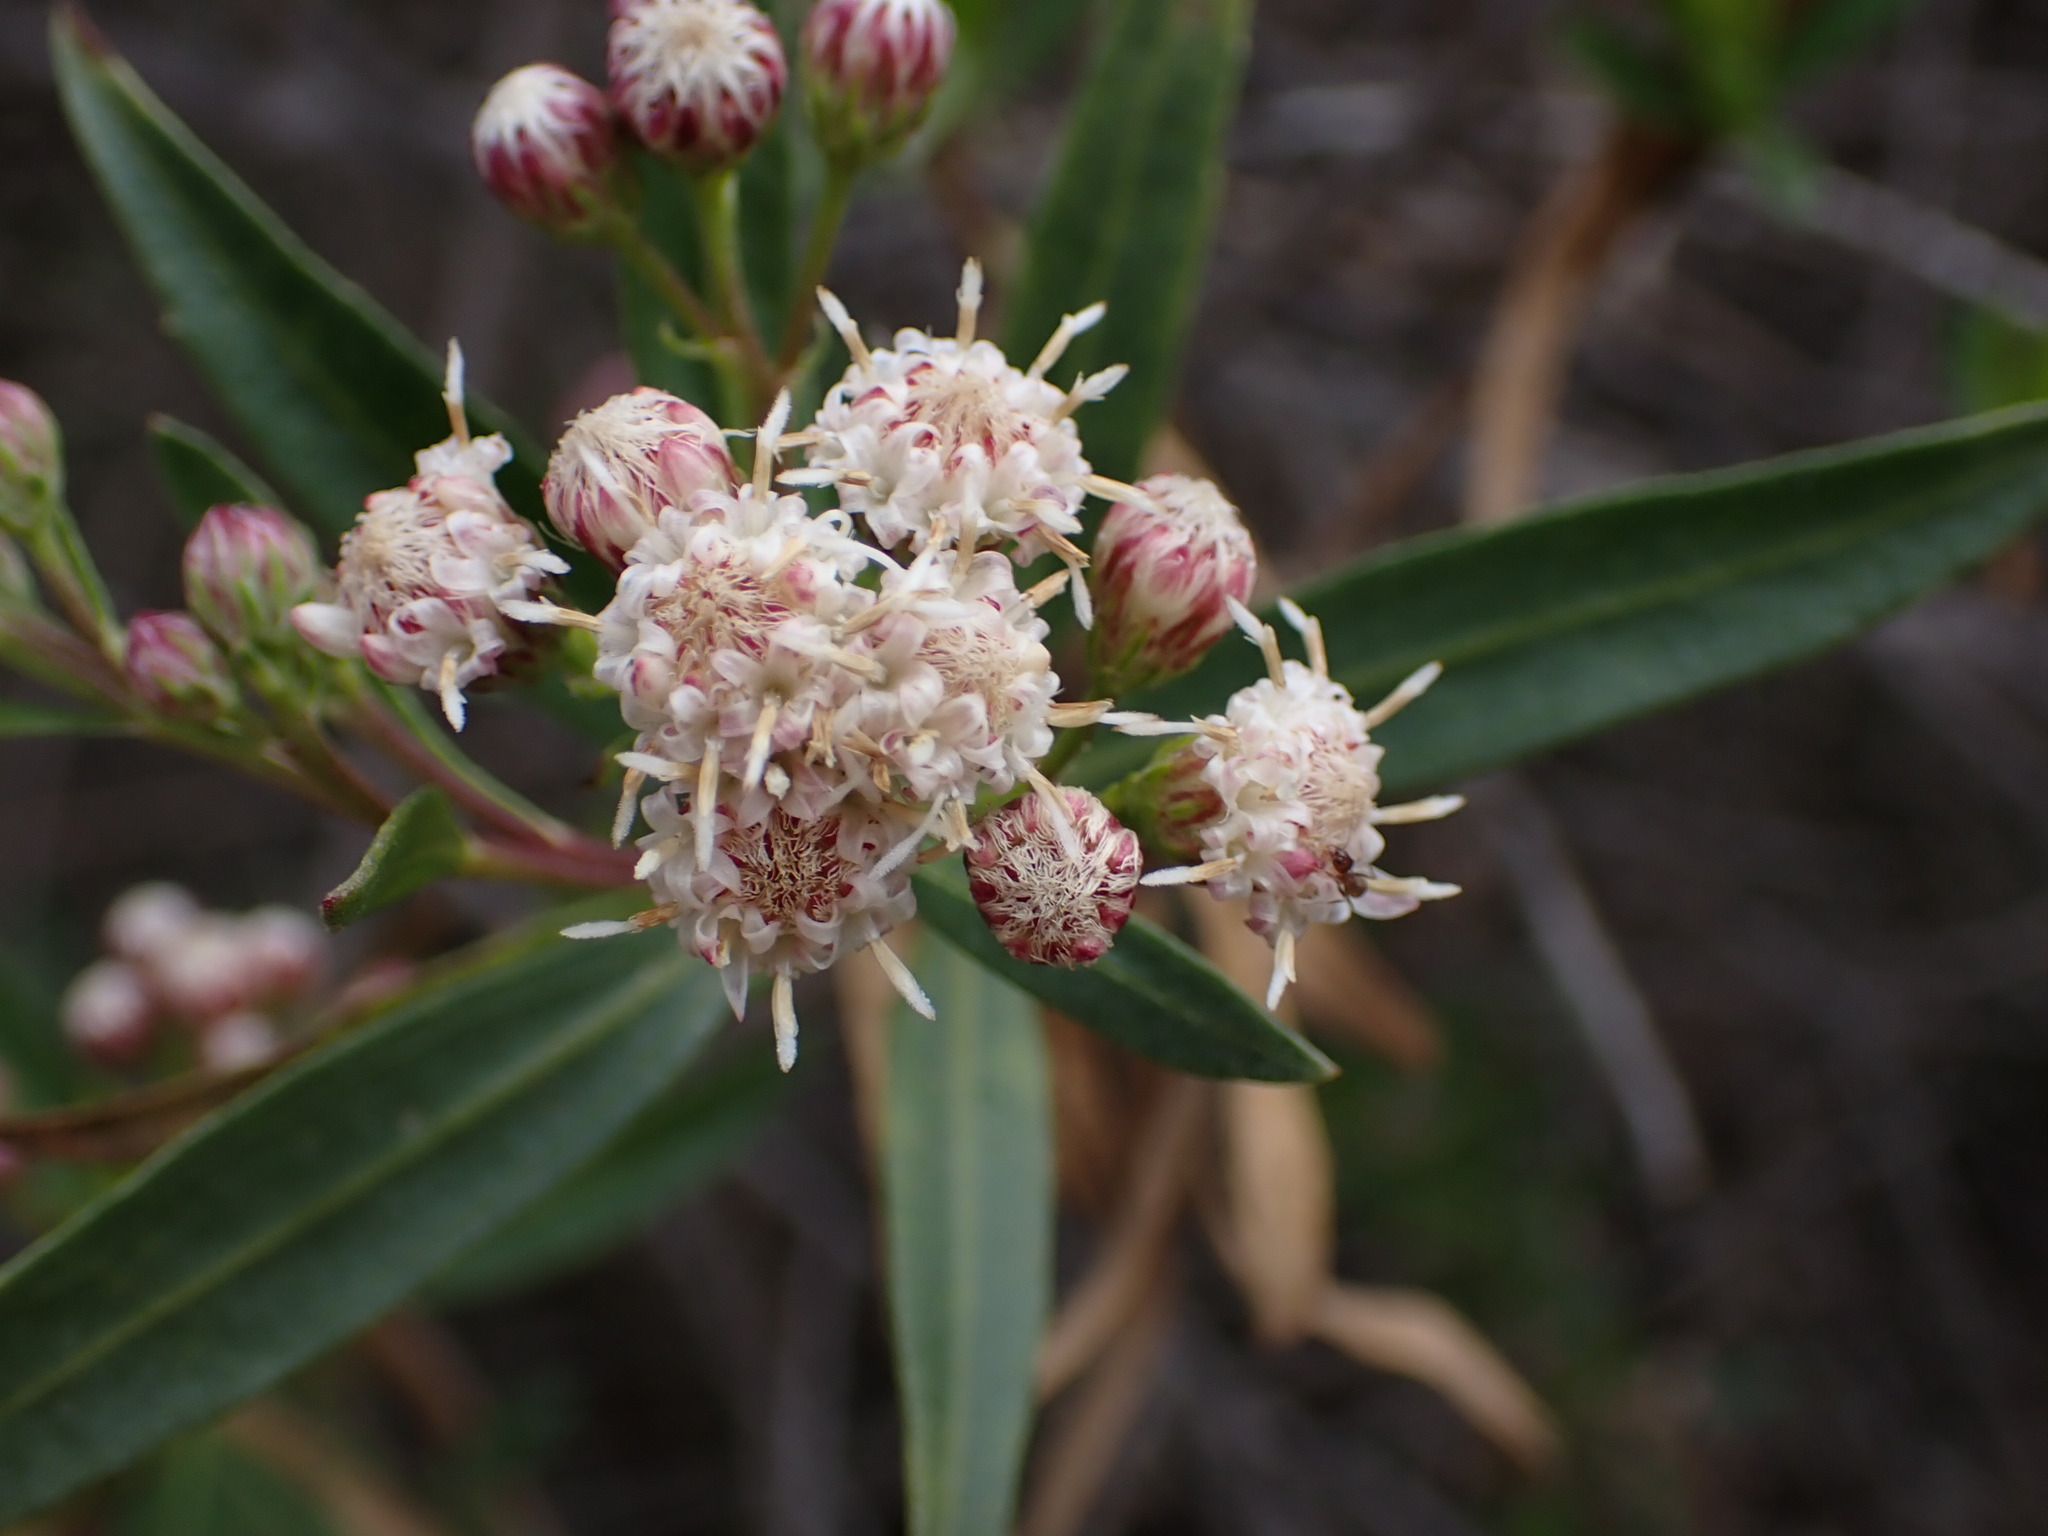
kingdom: Plantae
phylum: Tracheophyta
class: Magnoliopsida
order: Asterales
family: Asteraceae
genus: Baccharis
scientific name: Baccharis salicifolia
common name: Sticky baccharis
